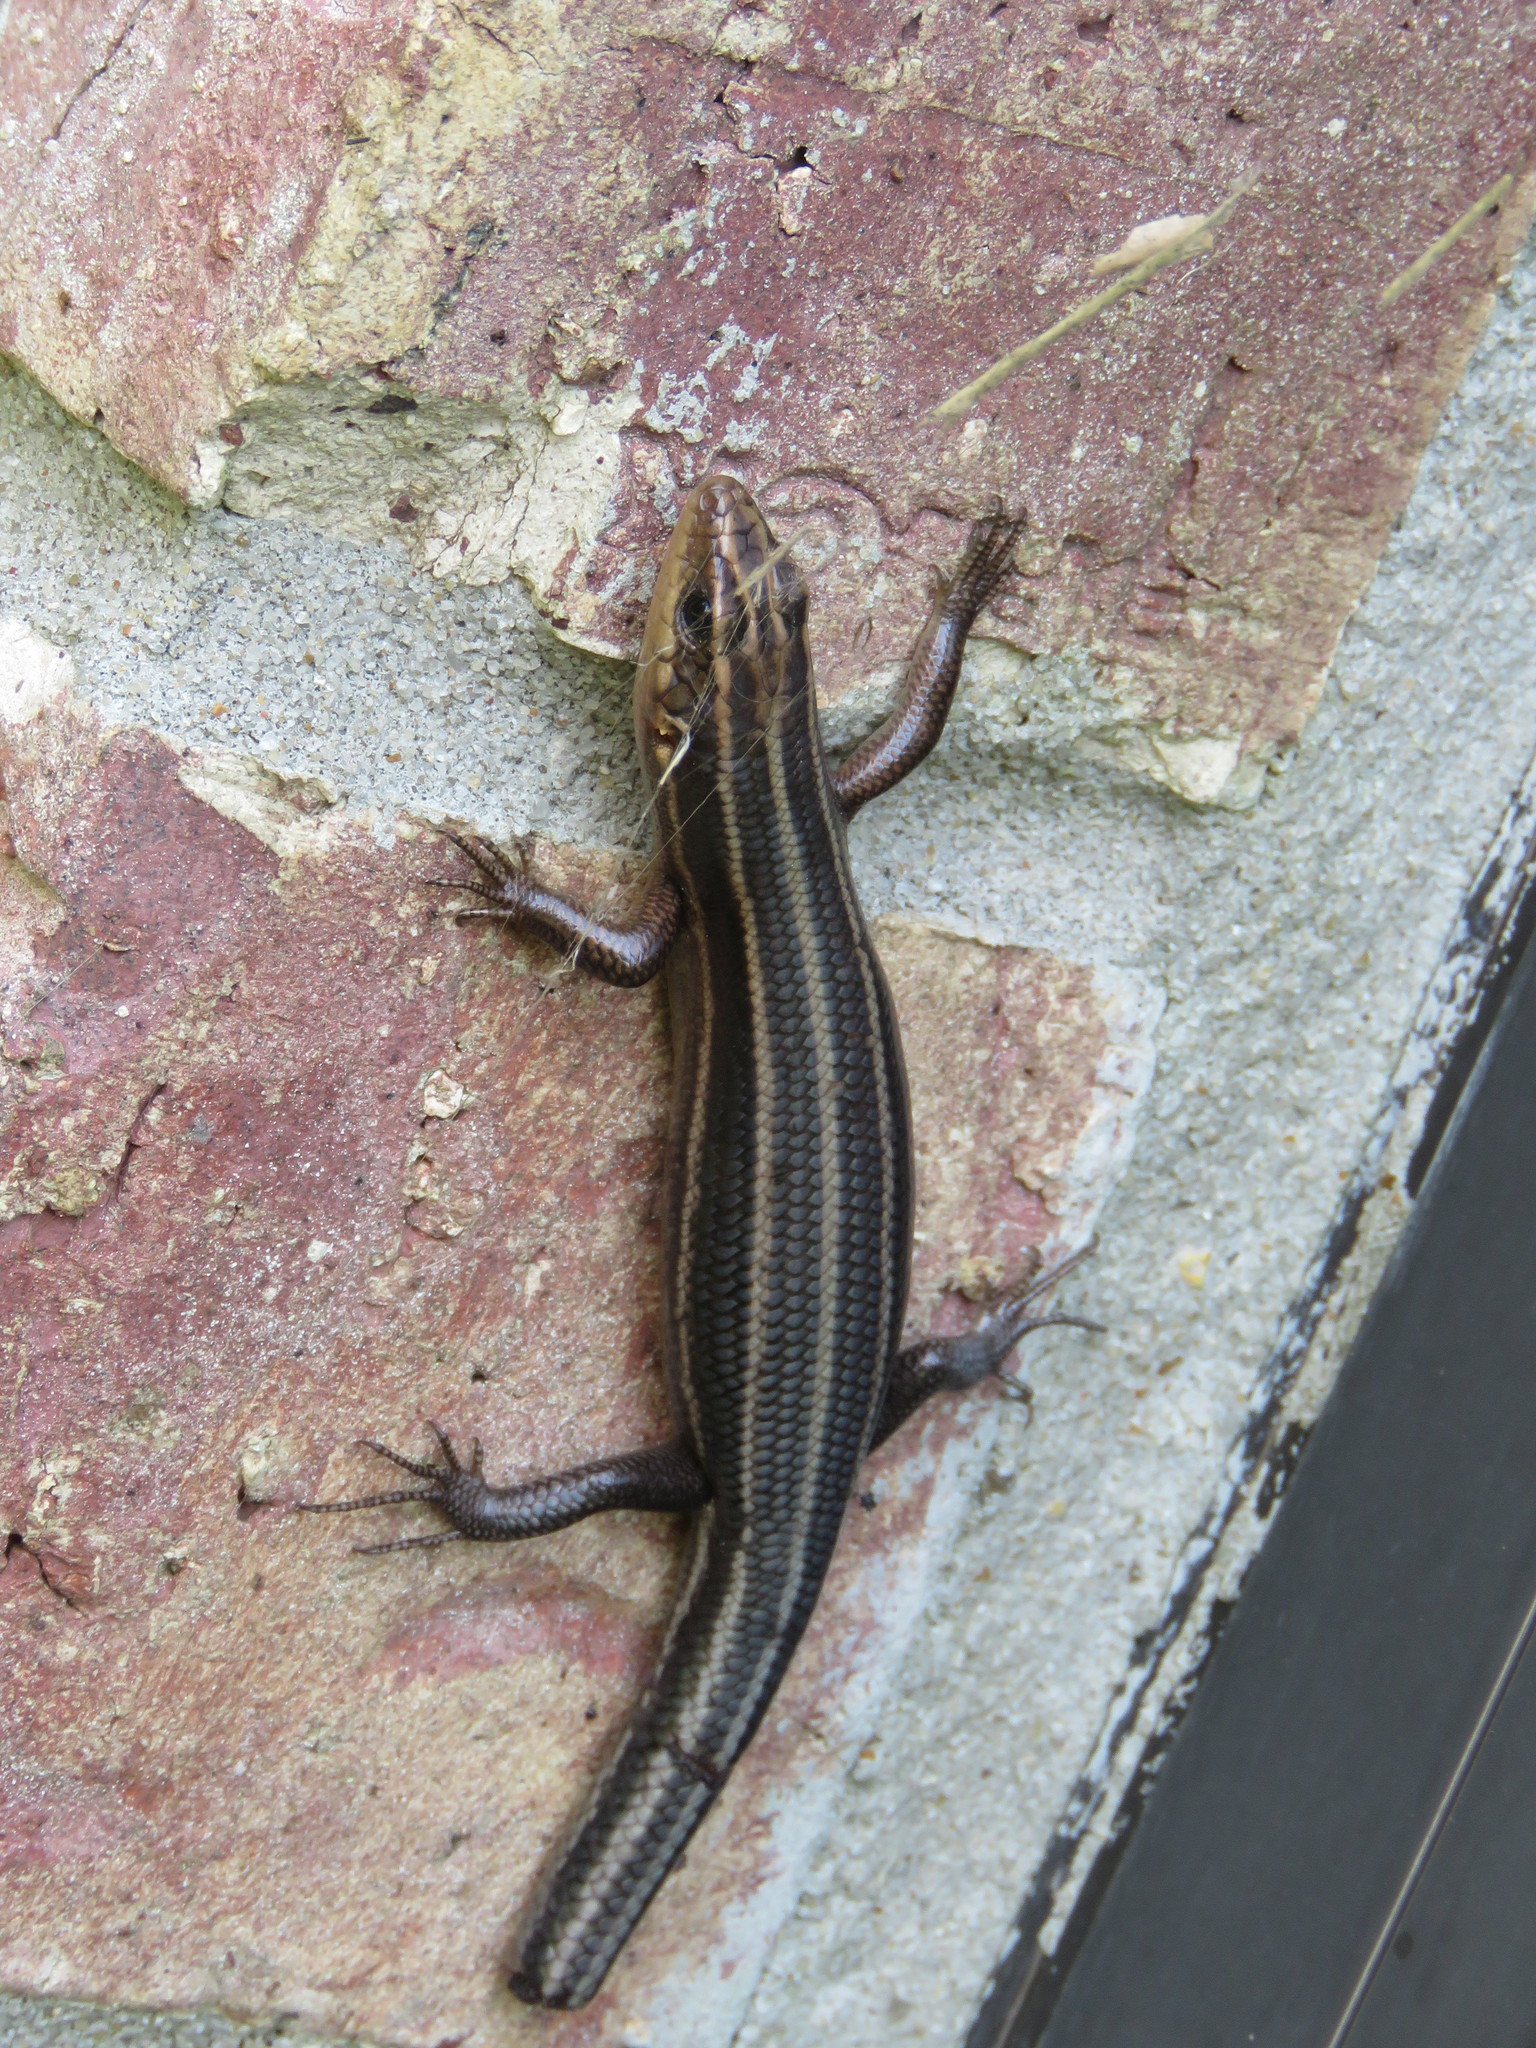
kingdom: Animalia
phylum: Chordata
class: Squamata
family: Scincidae
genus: Plestiodon
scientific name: Plestiodon fasciatus
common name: Five-lined skink
